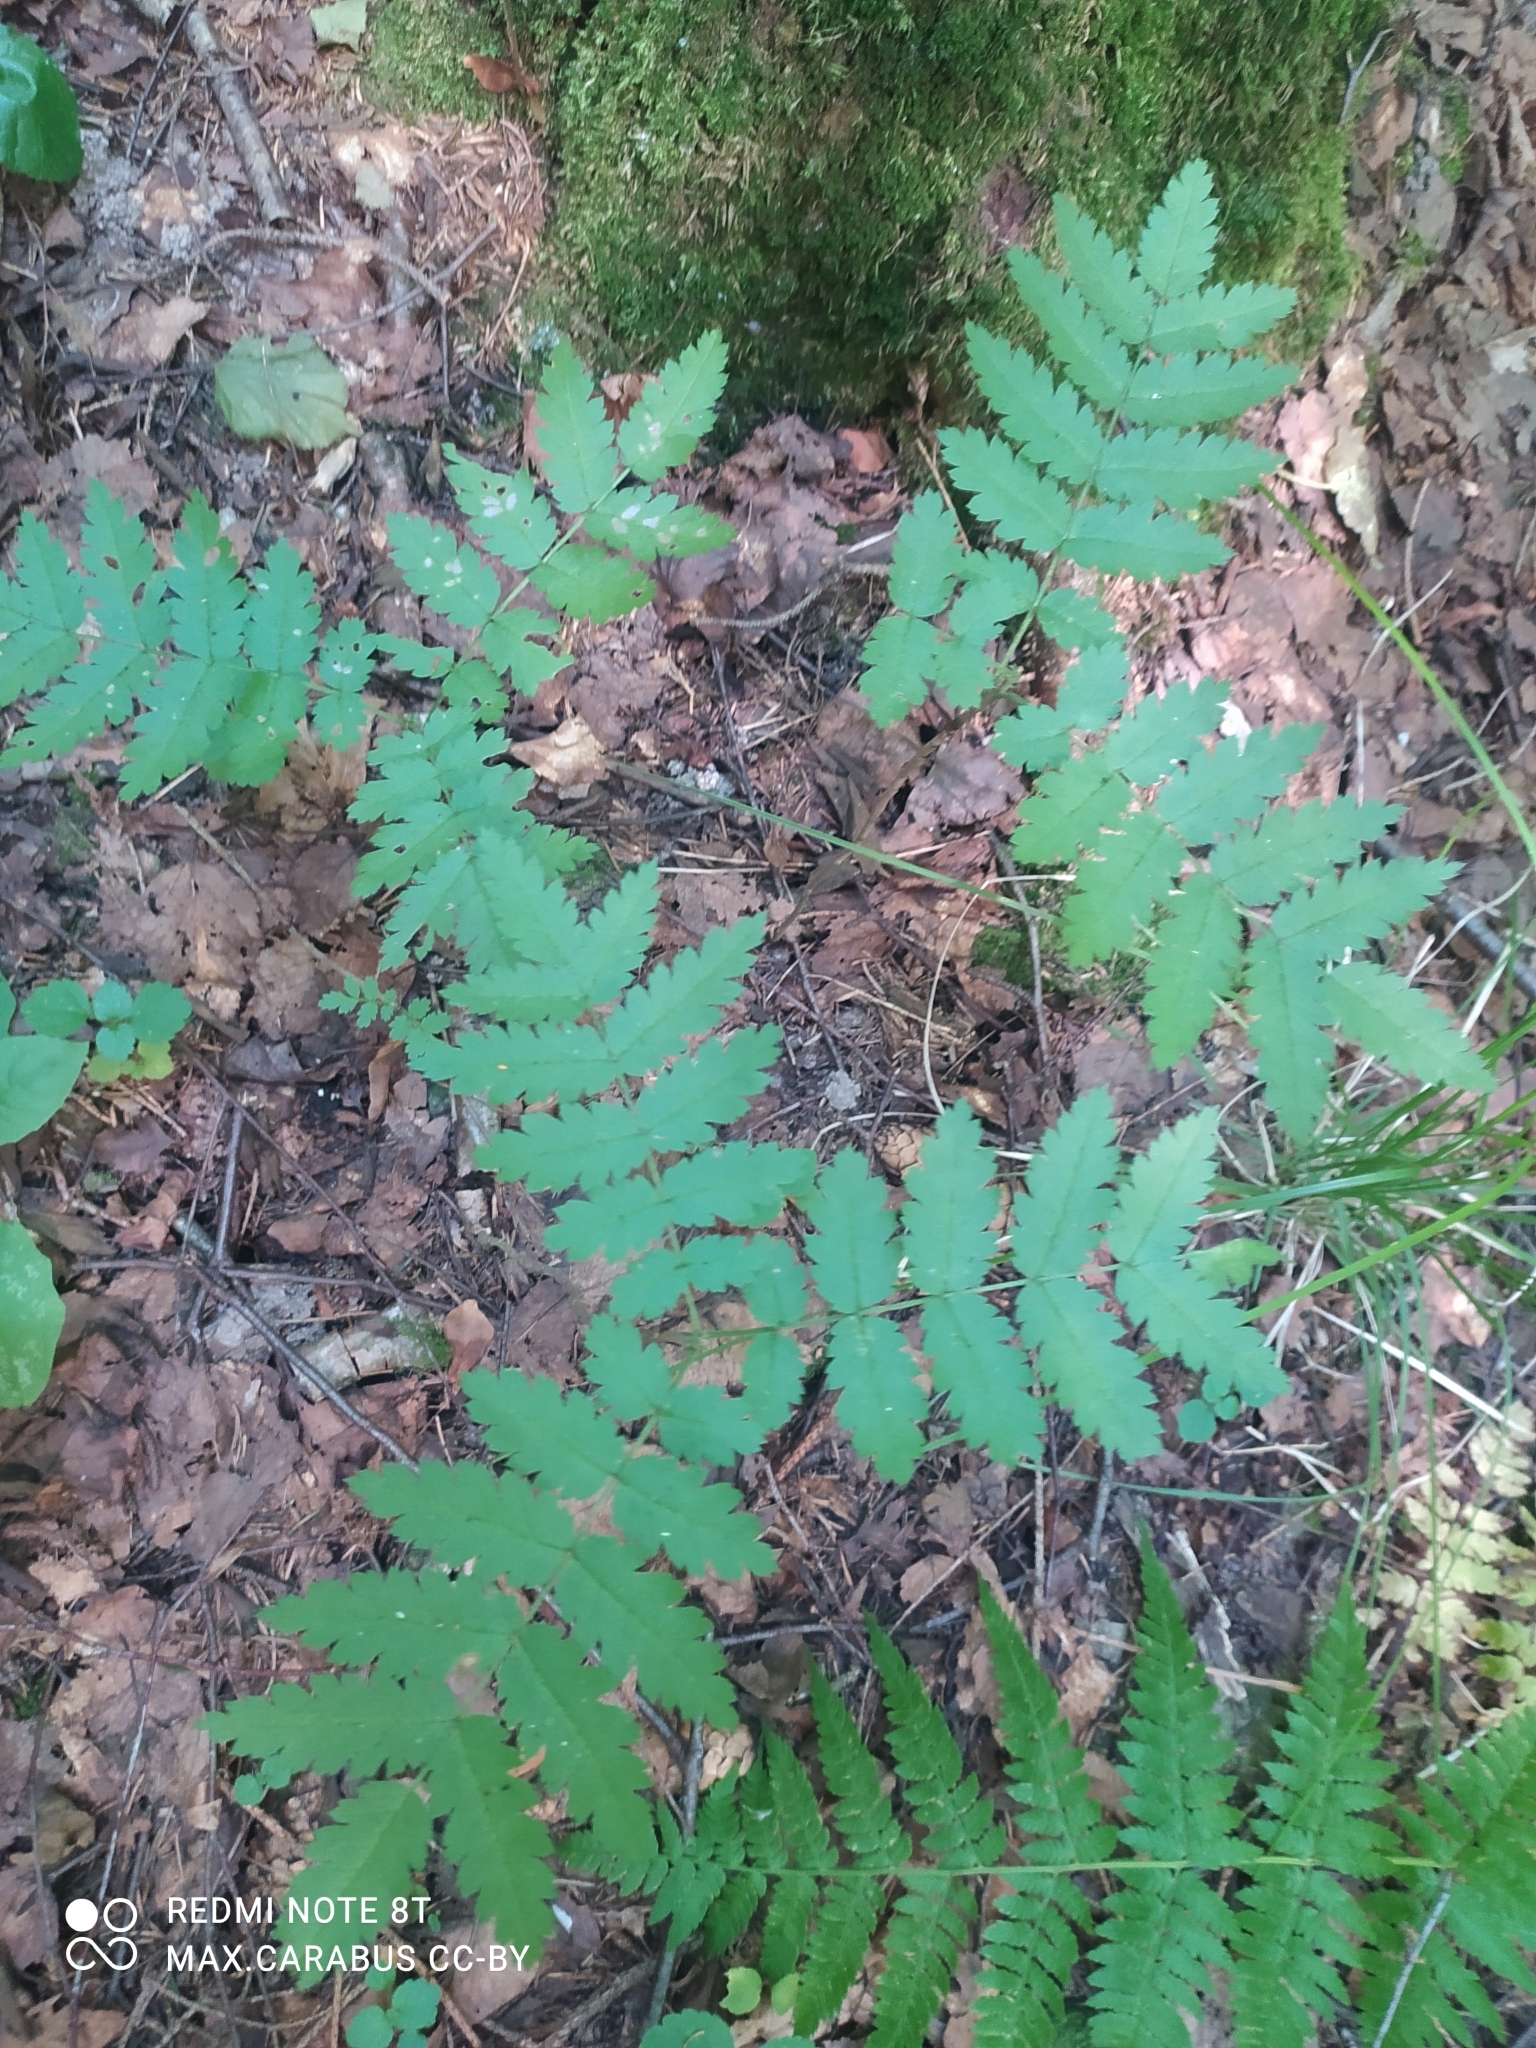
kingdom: Plantae
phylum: Tracheophyta
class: Magnoliopsida
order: Rosales
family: Rosaceae
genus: Sorbus
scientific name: Sorbus aucuparia
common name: Rowan
